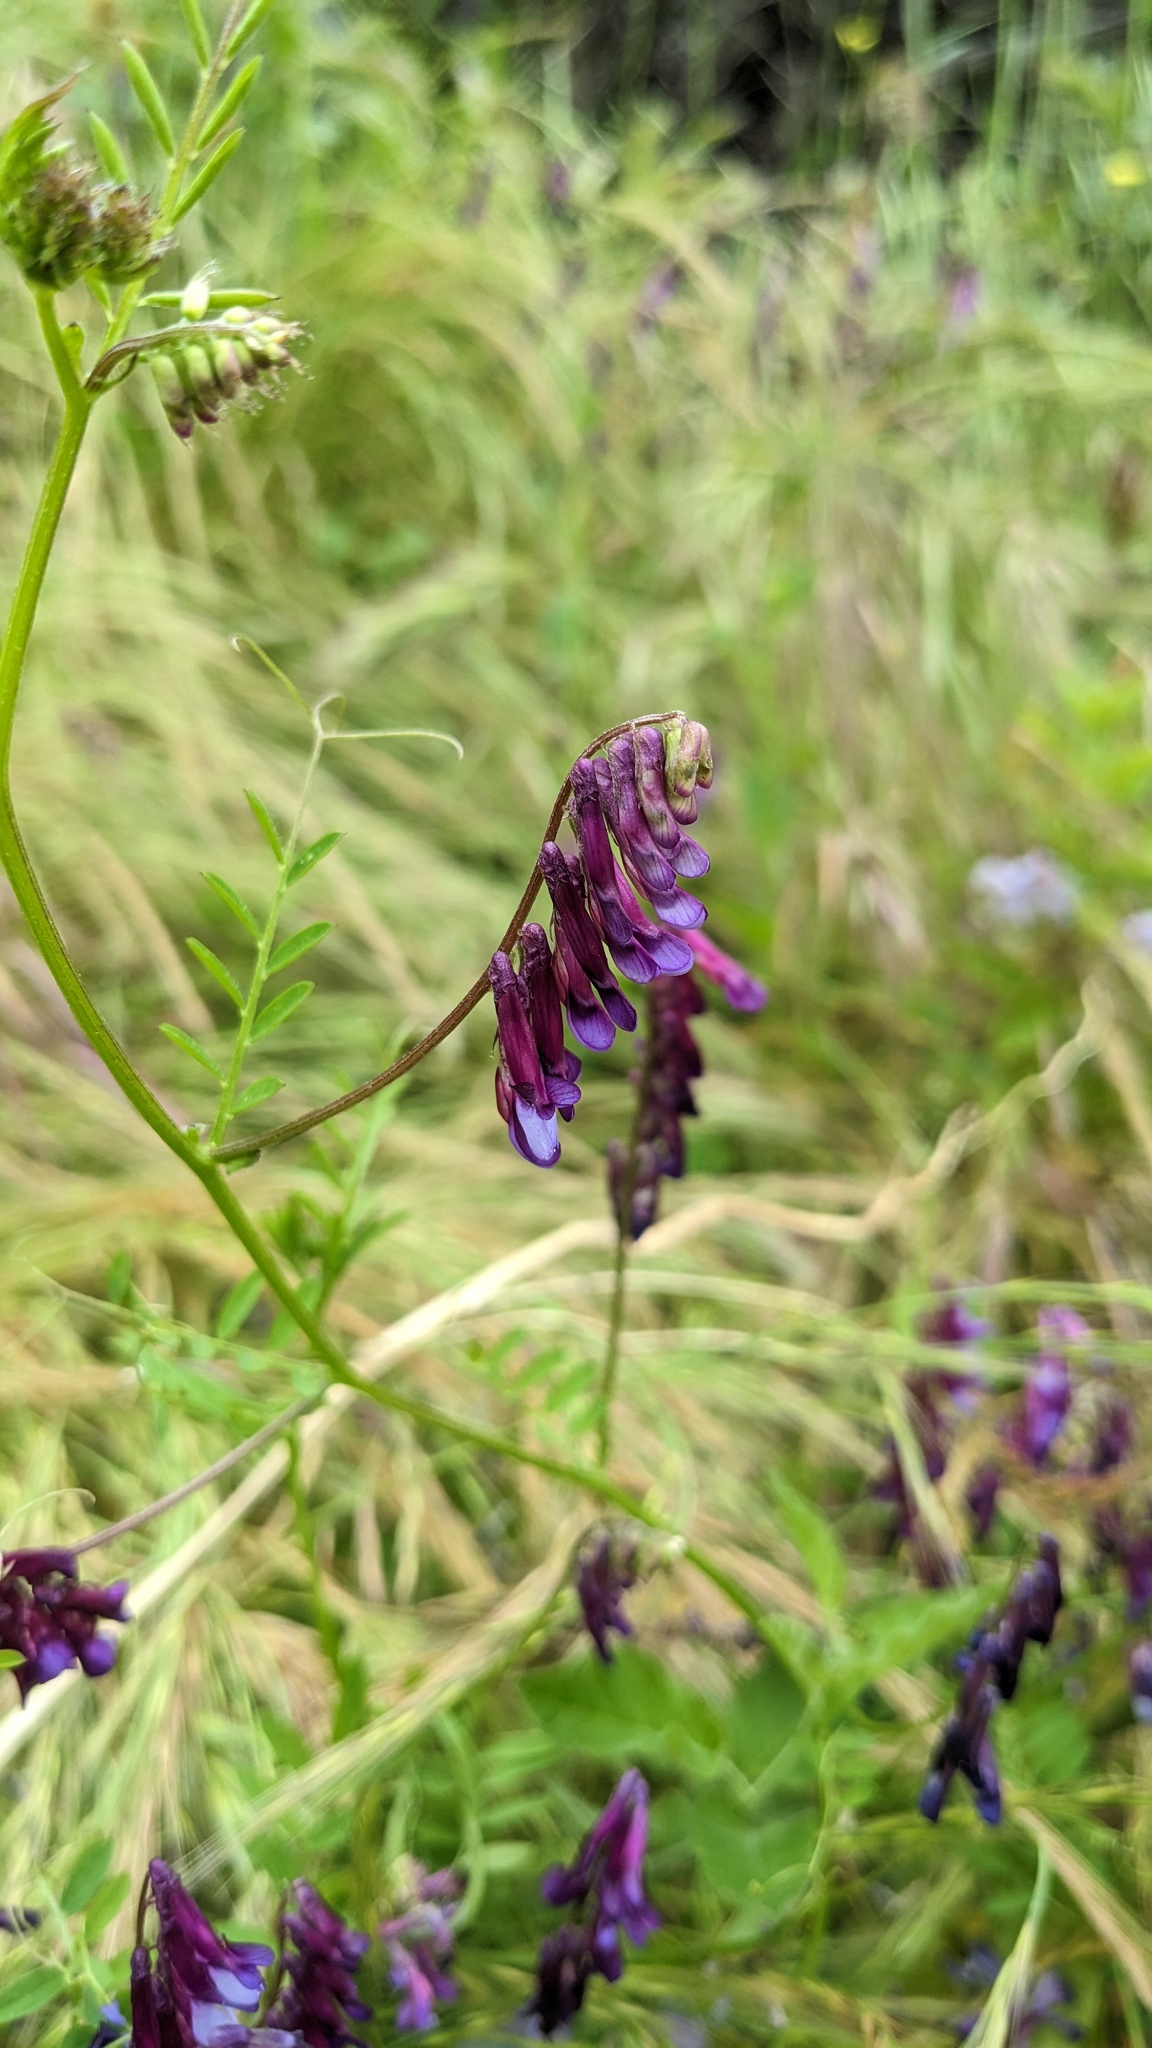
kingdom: Plantae
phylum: Tracheophyta
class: Magnoliopsida
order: Fabales
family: Fabaceae
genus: Vicia
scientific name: Vicia villosa
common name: Fodder vetch
